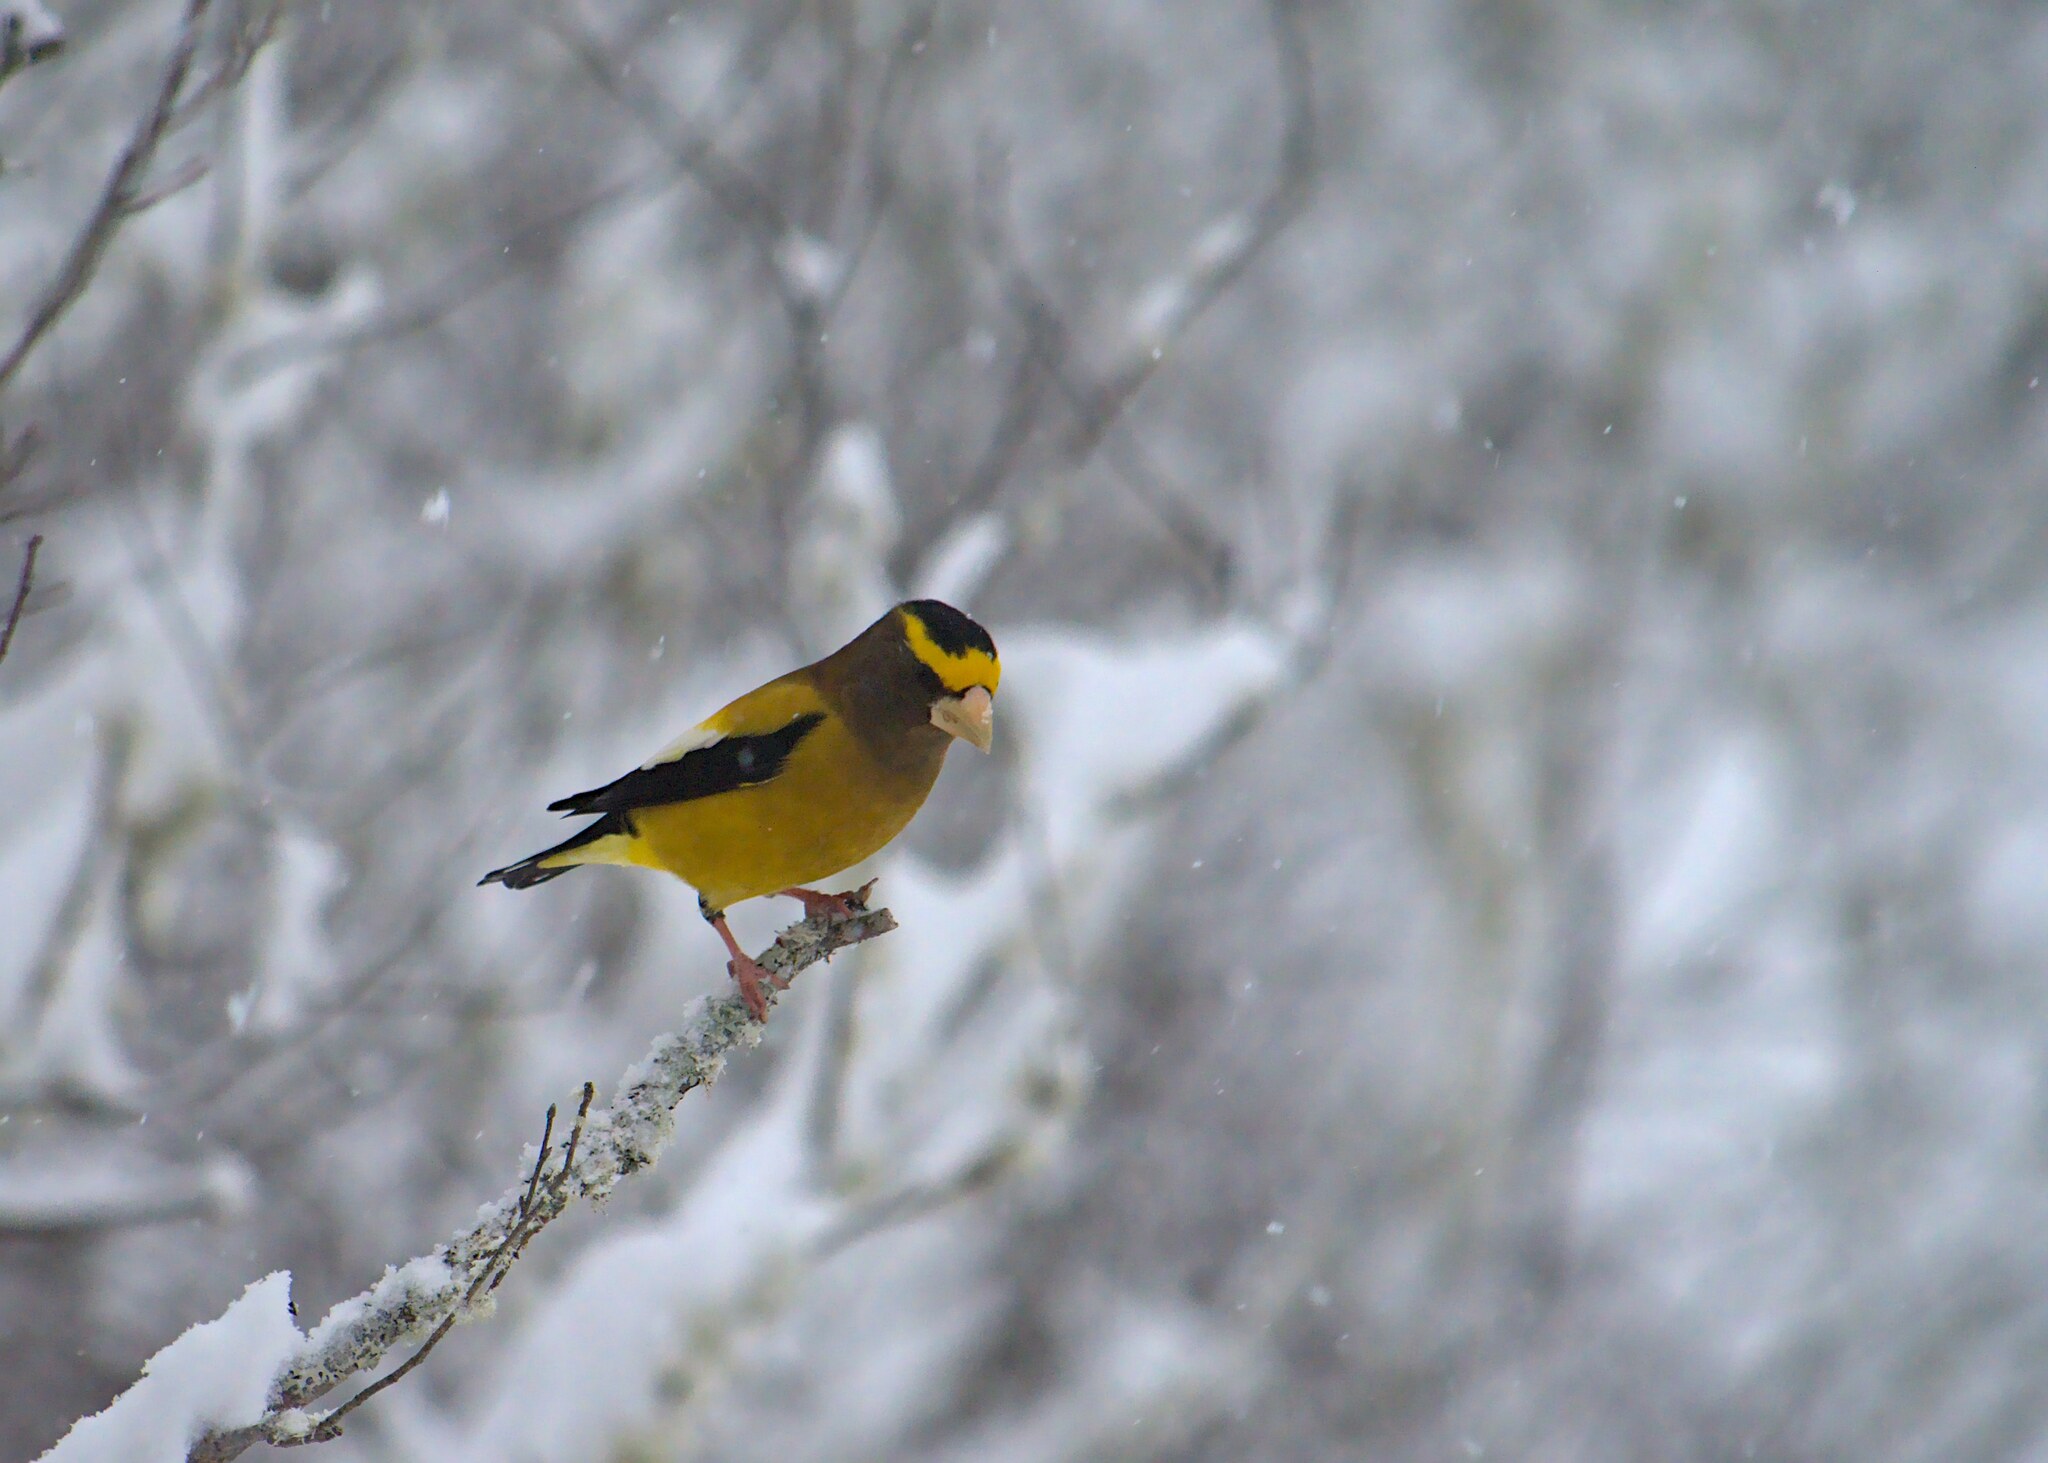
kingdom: Animalia
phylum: Chordata
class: Aves
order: Passeriformes
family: Fringillidae
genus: Hesperiphona
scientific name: Hesperiphona vespertina
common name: Evening grosbeak
